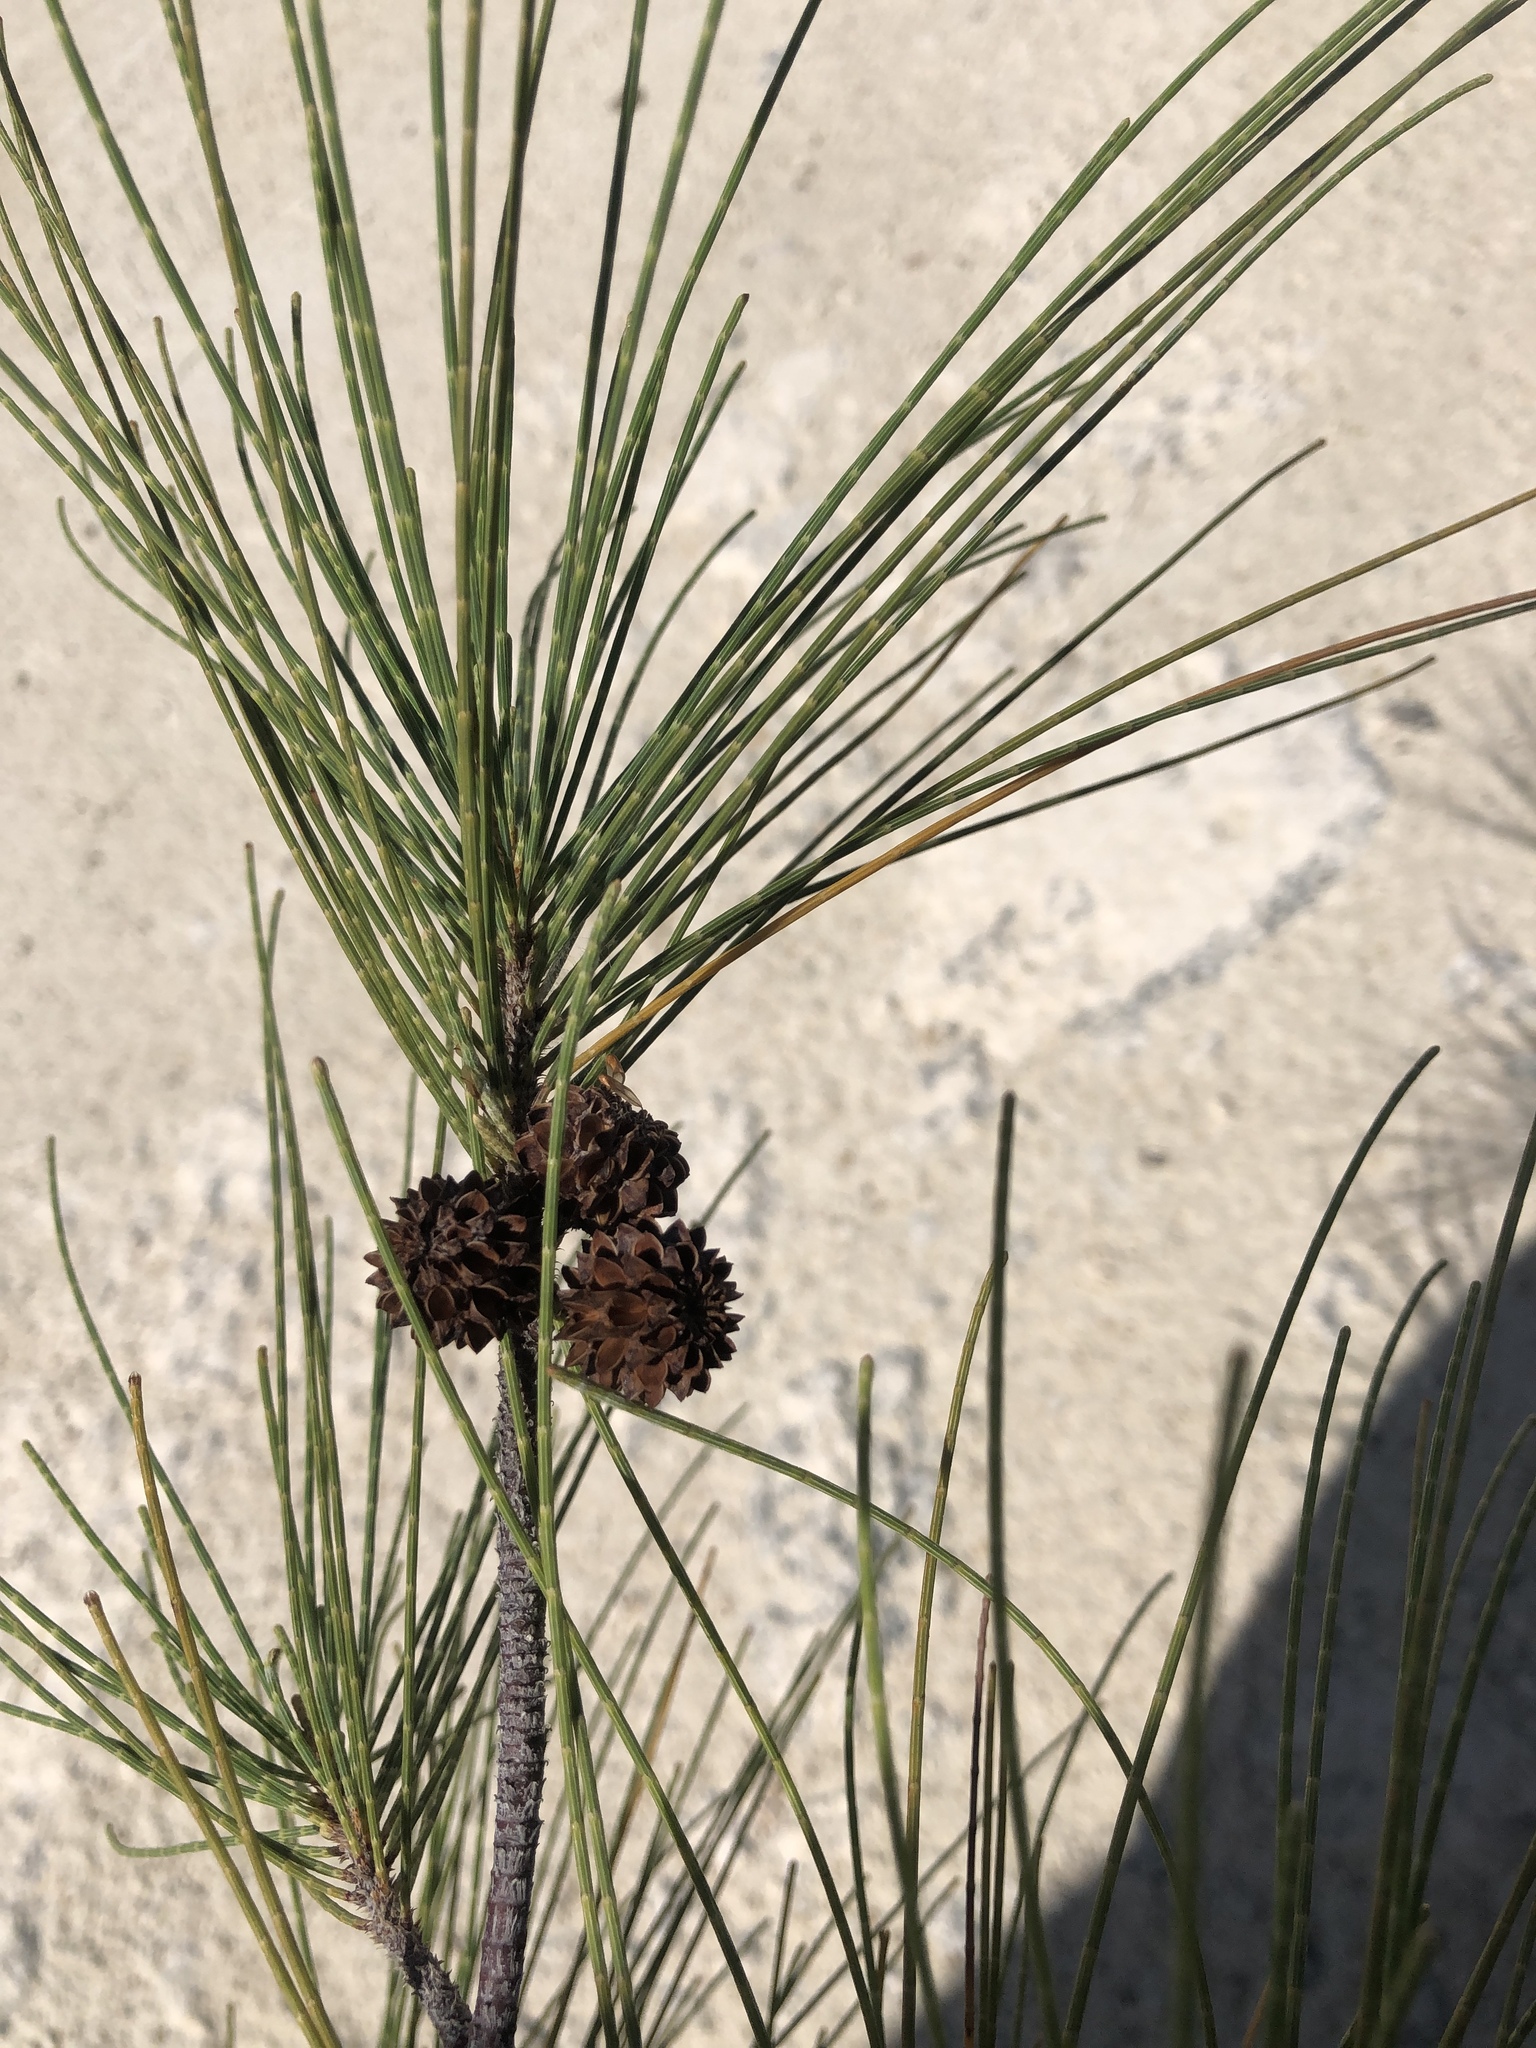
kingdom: Plantae
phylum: Tracheophyta
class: Magnoliopsida
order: Fagales
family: Casuarinaceae
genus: Casuarina
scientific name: Casuarina equisetifolia
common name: Beach sheoak
